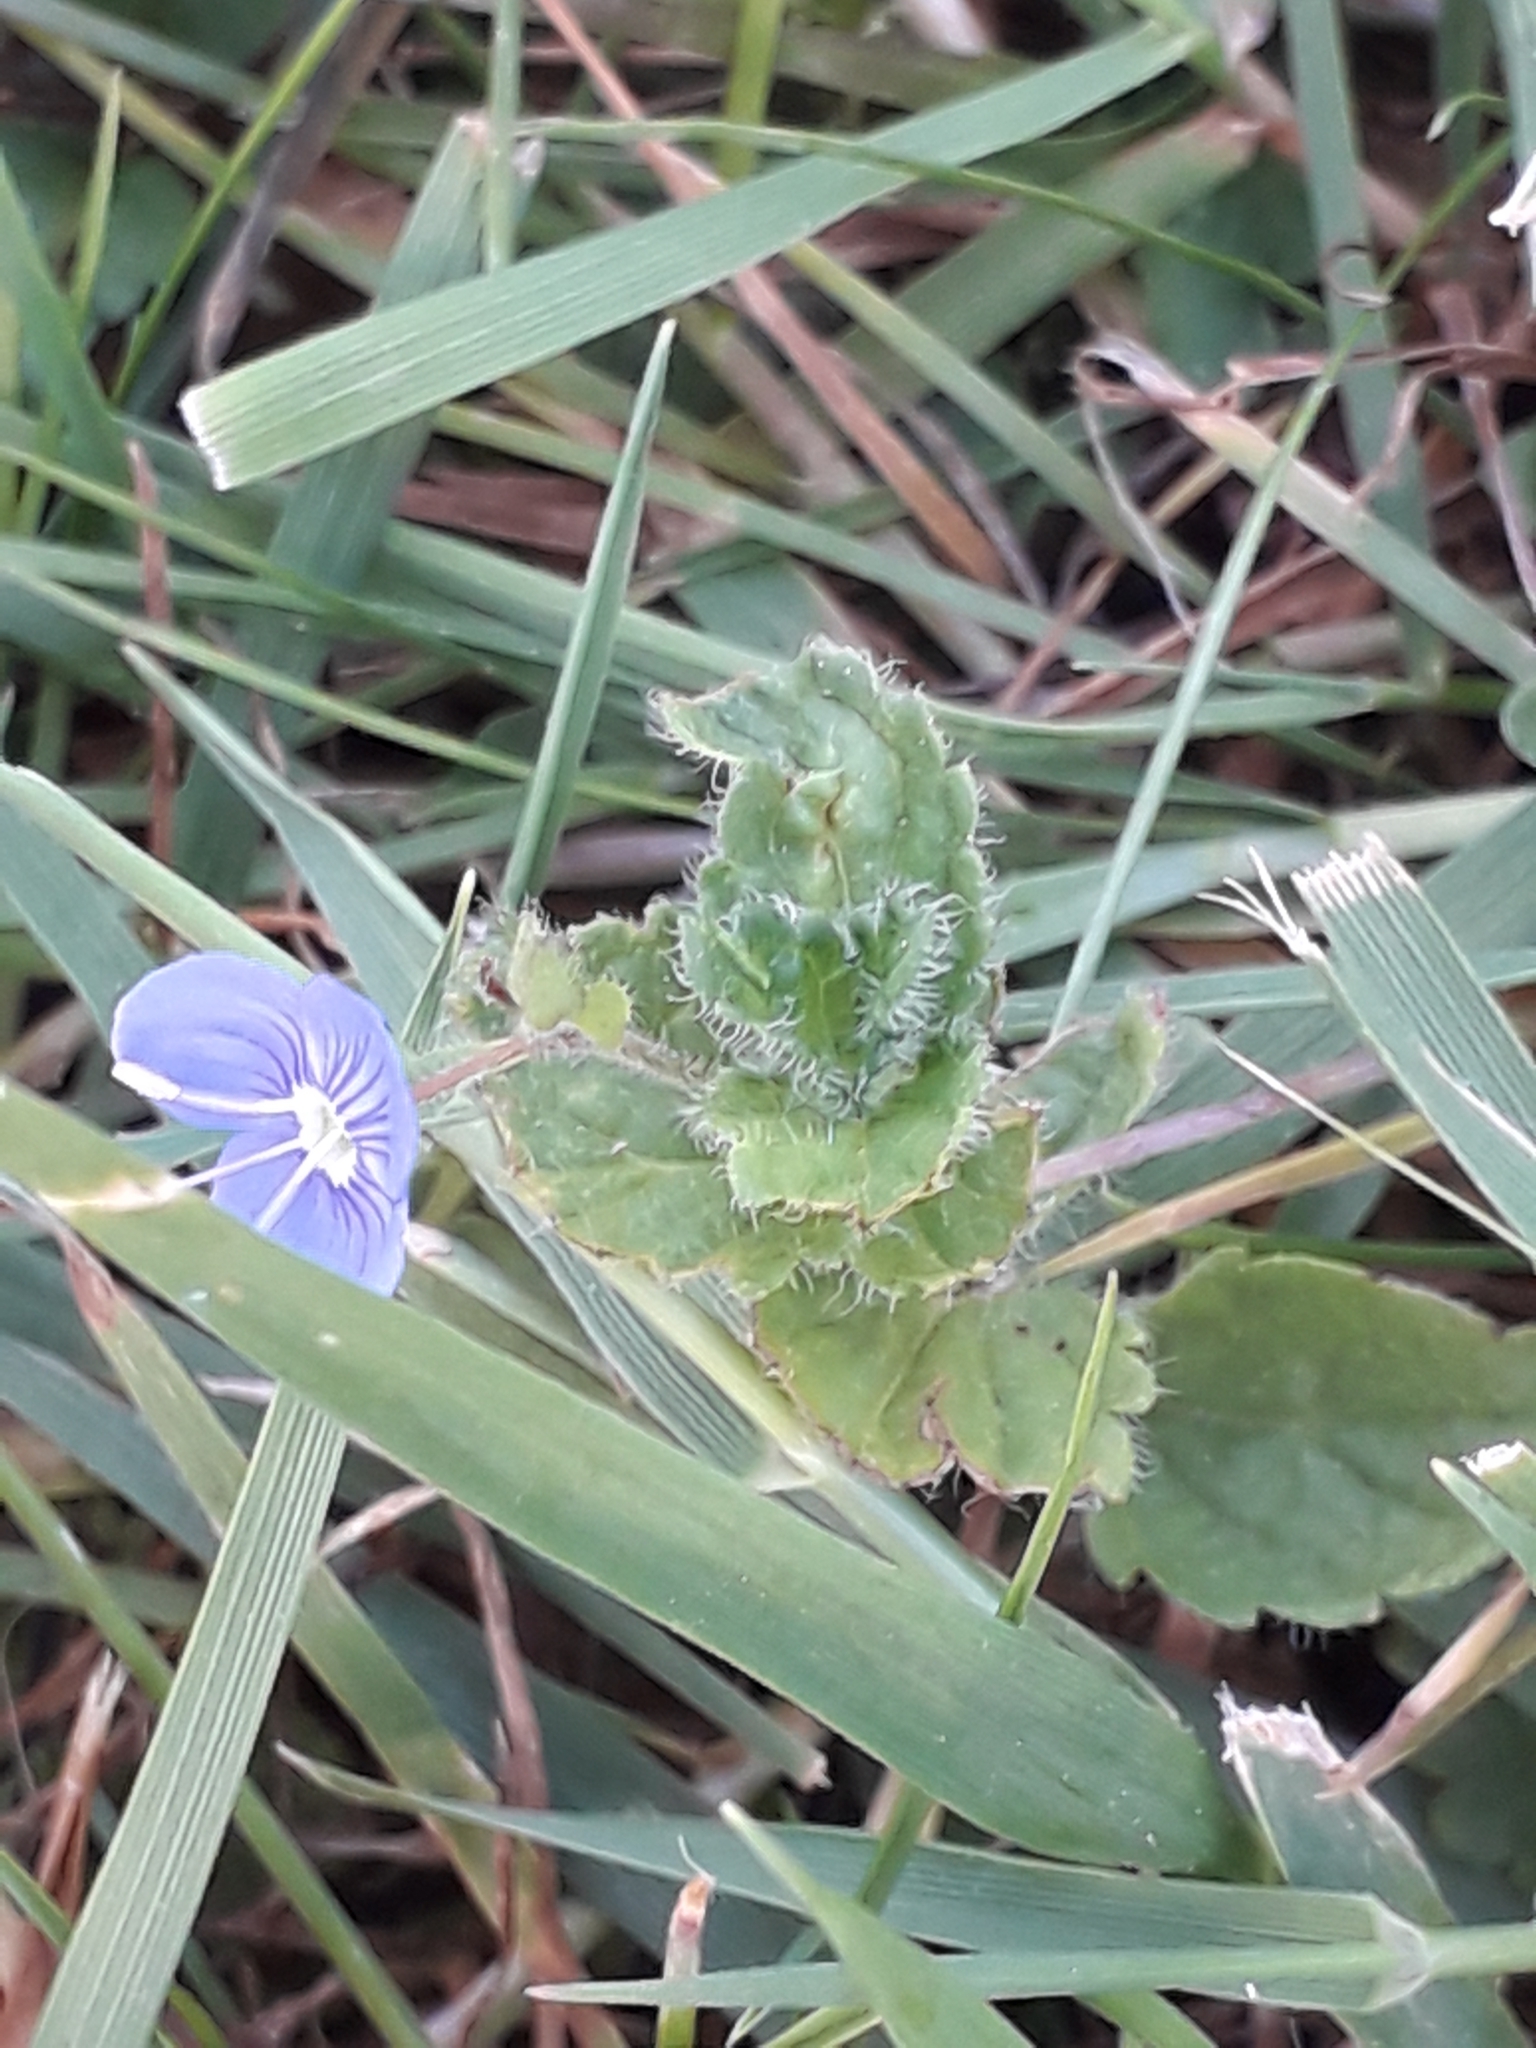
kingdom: Plantae
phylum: Tracheophyta
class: Magnoliopsida
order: Lamiales
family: Plantaginaceae
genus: Veronica
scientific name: Veronica chamaedrys
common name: Germander speedwell
